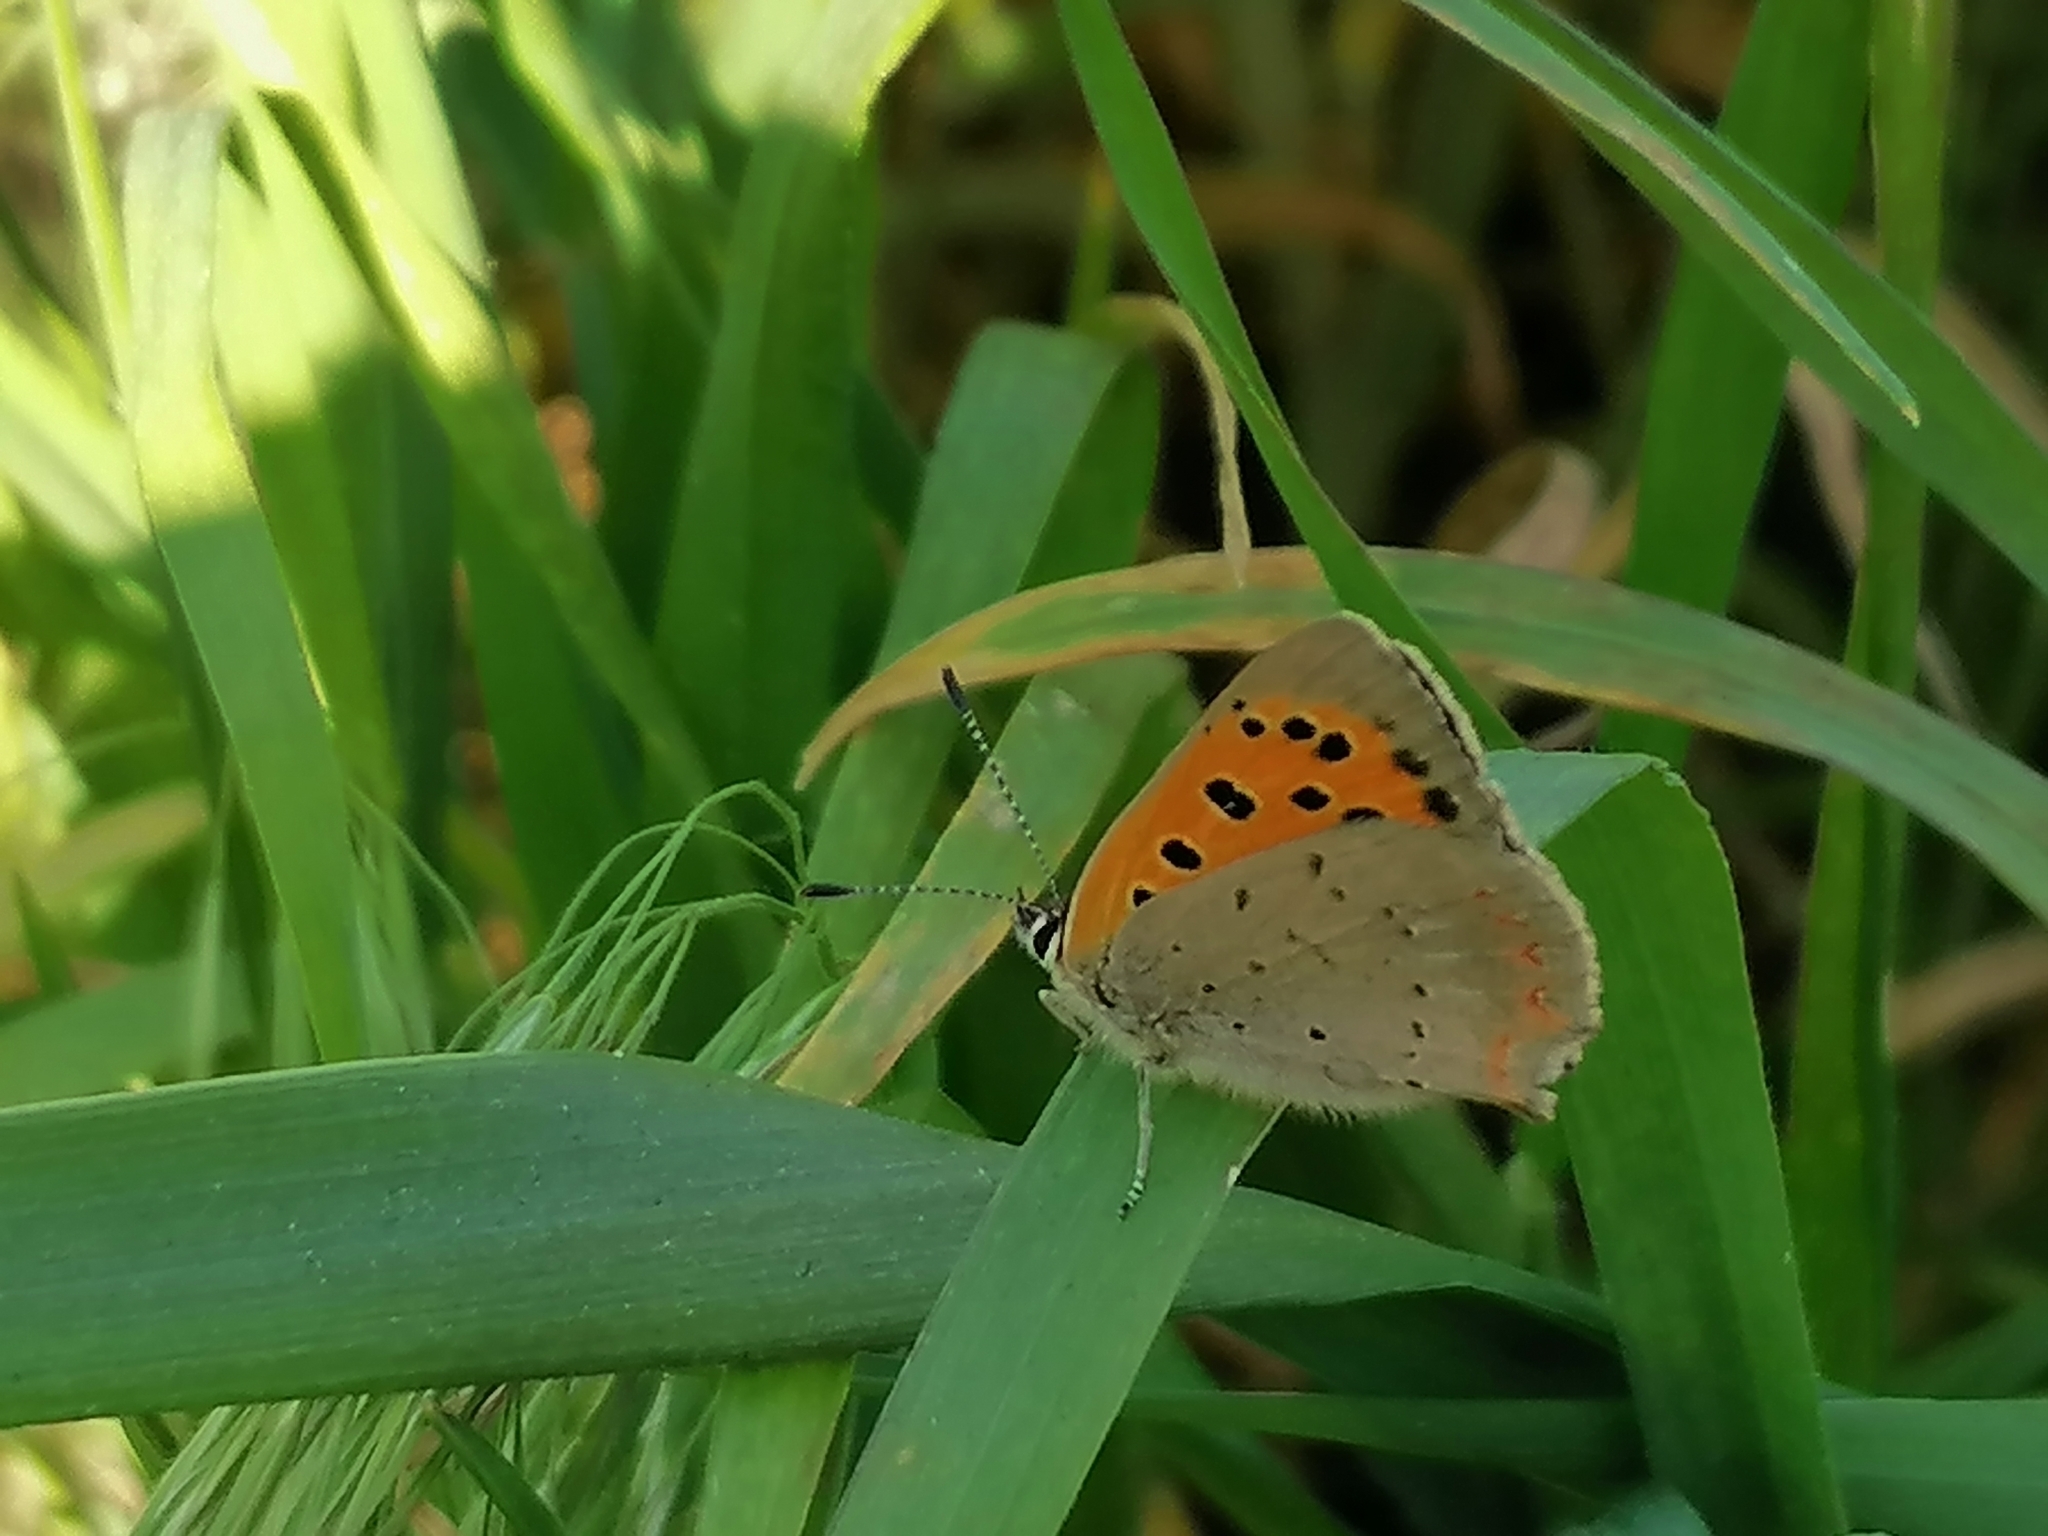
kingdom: Animalia
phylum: Arthropoda
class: Insecta
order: Lepidoptera
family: Lycaenidae
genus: Lycaena
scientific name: Lycaena phlaeas
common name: Small copper
